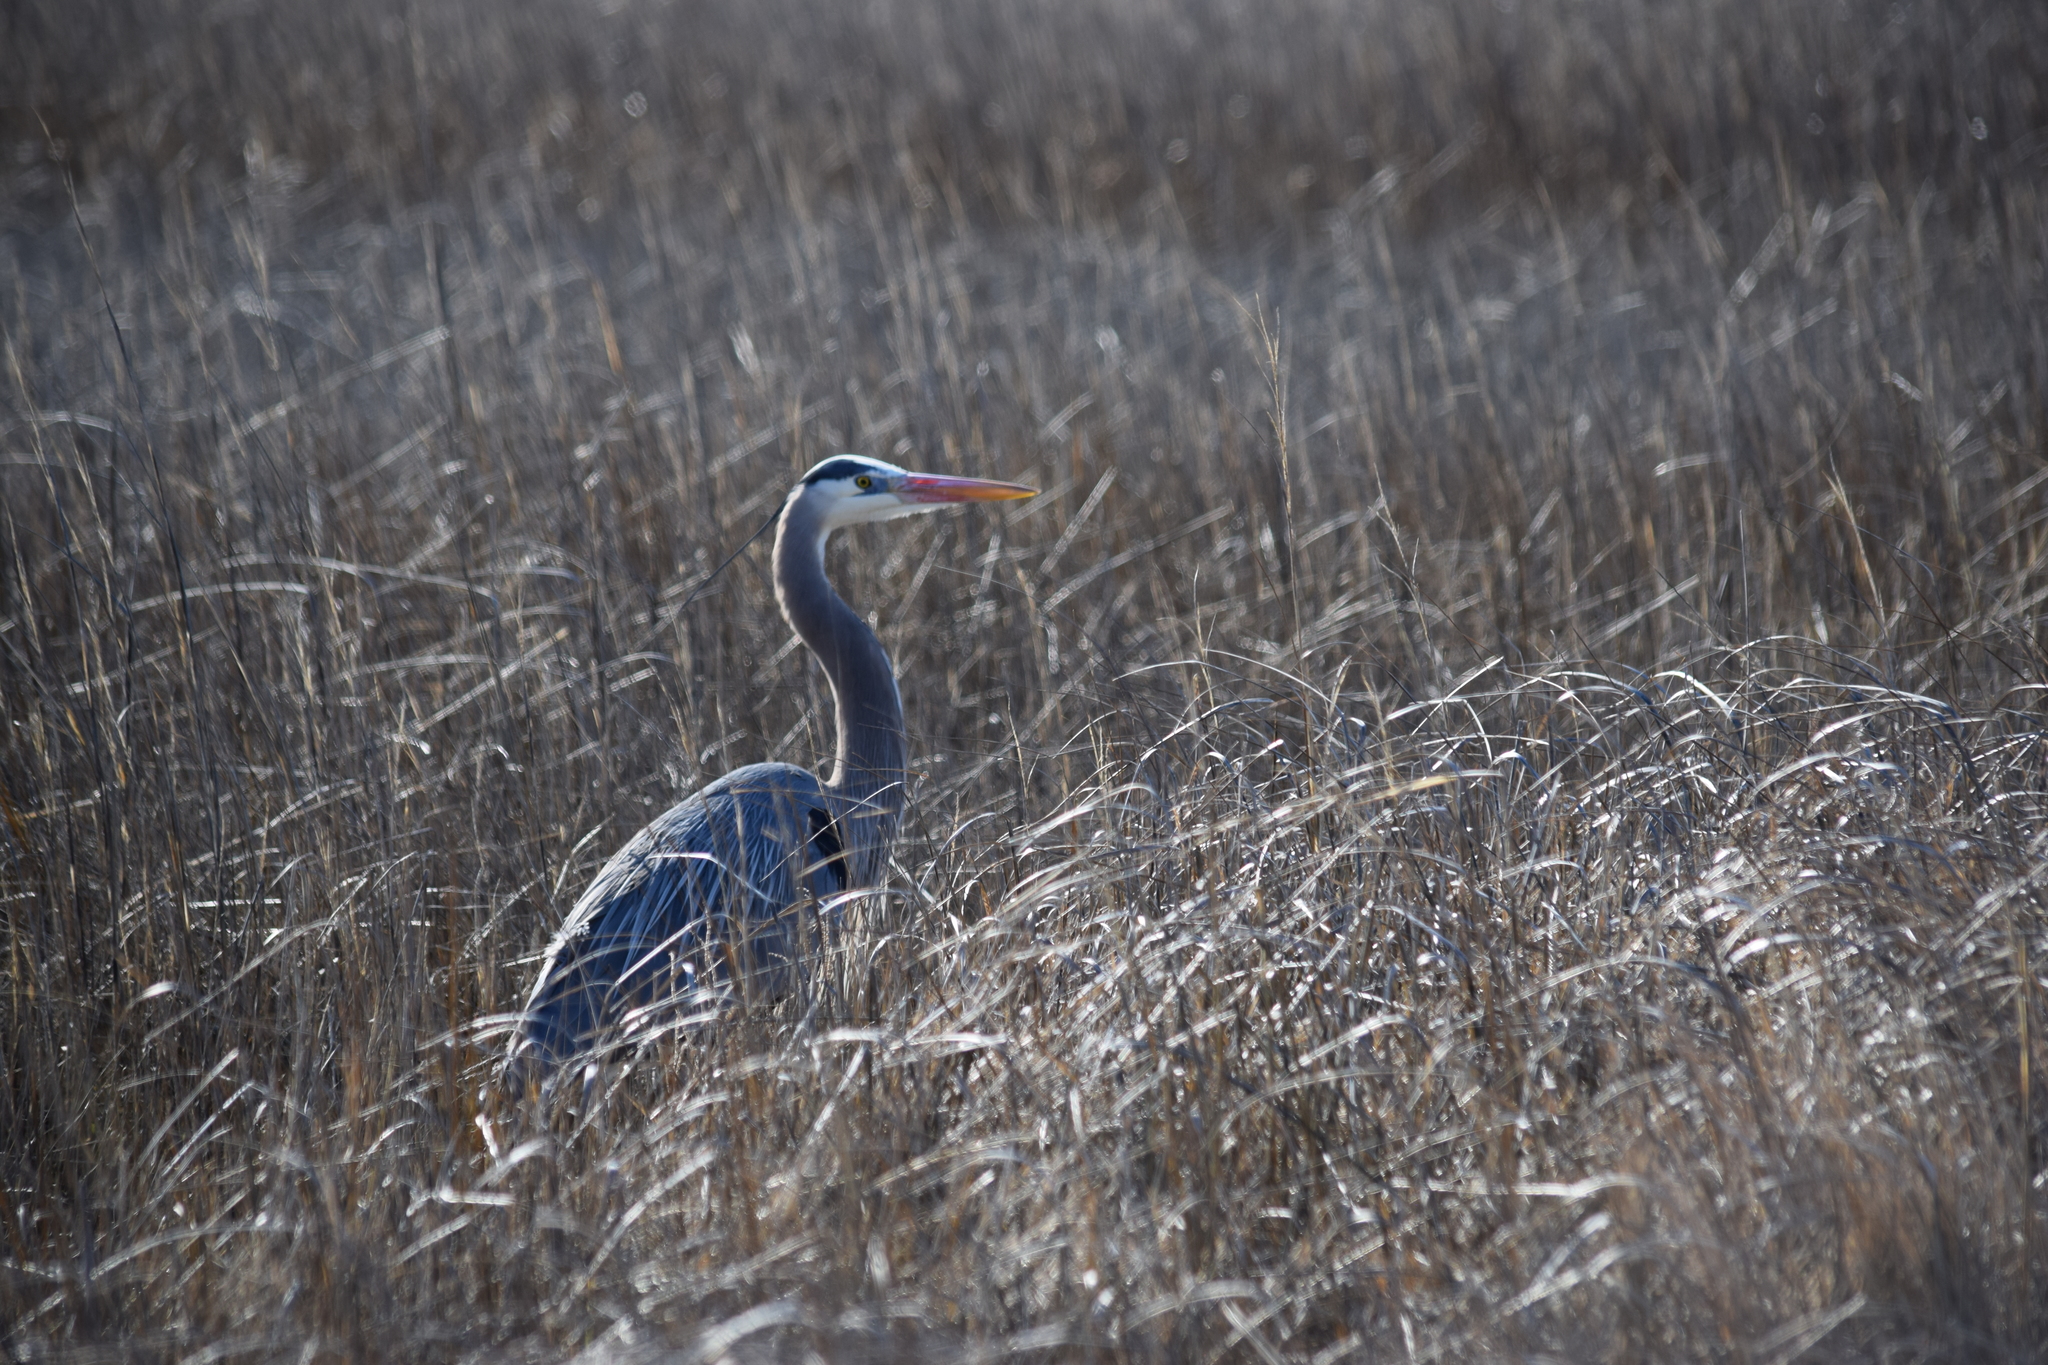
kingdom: Animalia
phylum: Chordata
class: Aves
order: Pelecaniformes
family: Ardeidae
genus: Ardea
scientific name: Ardea herodias
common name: Great blue heron
